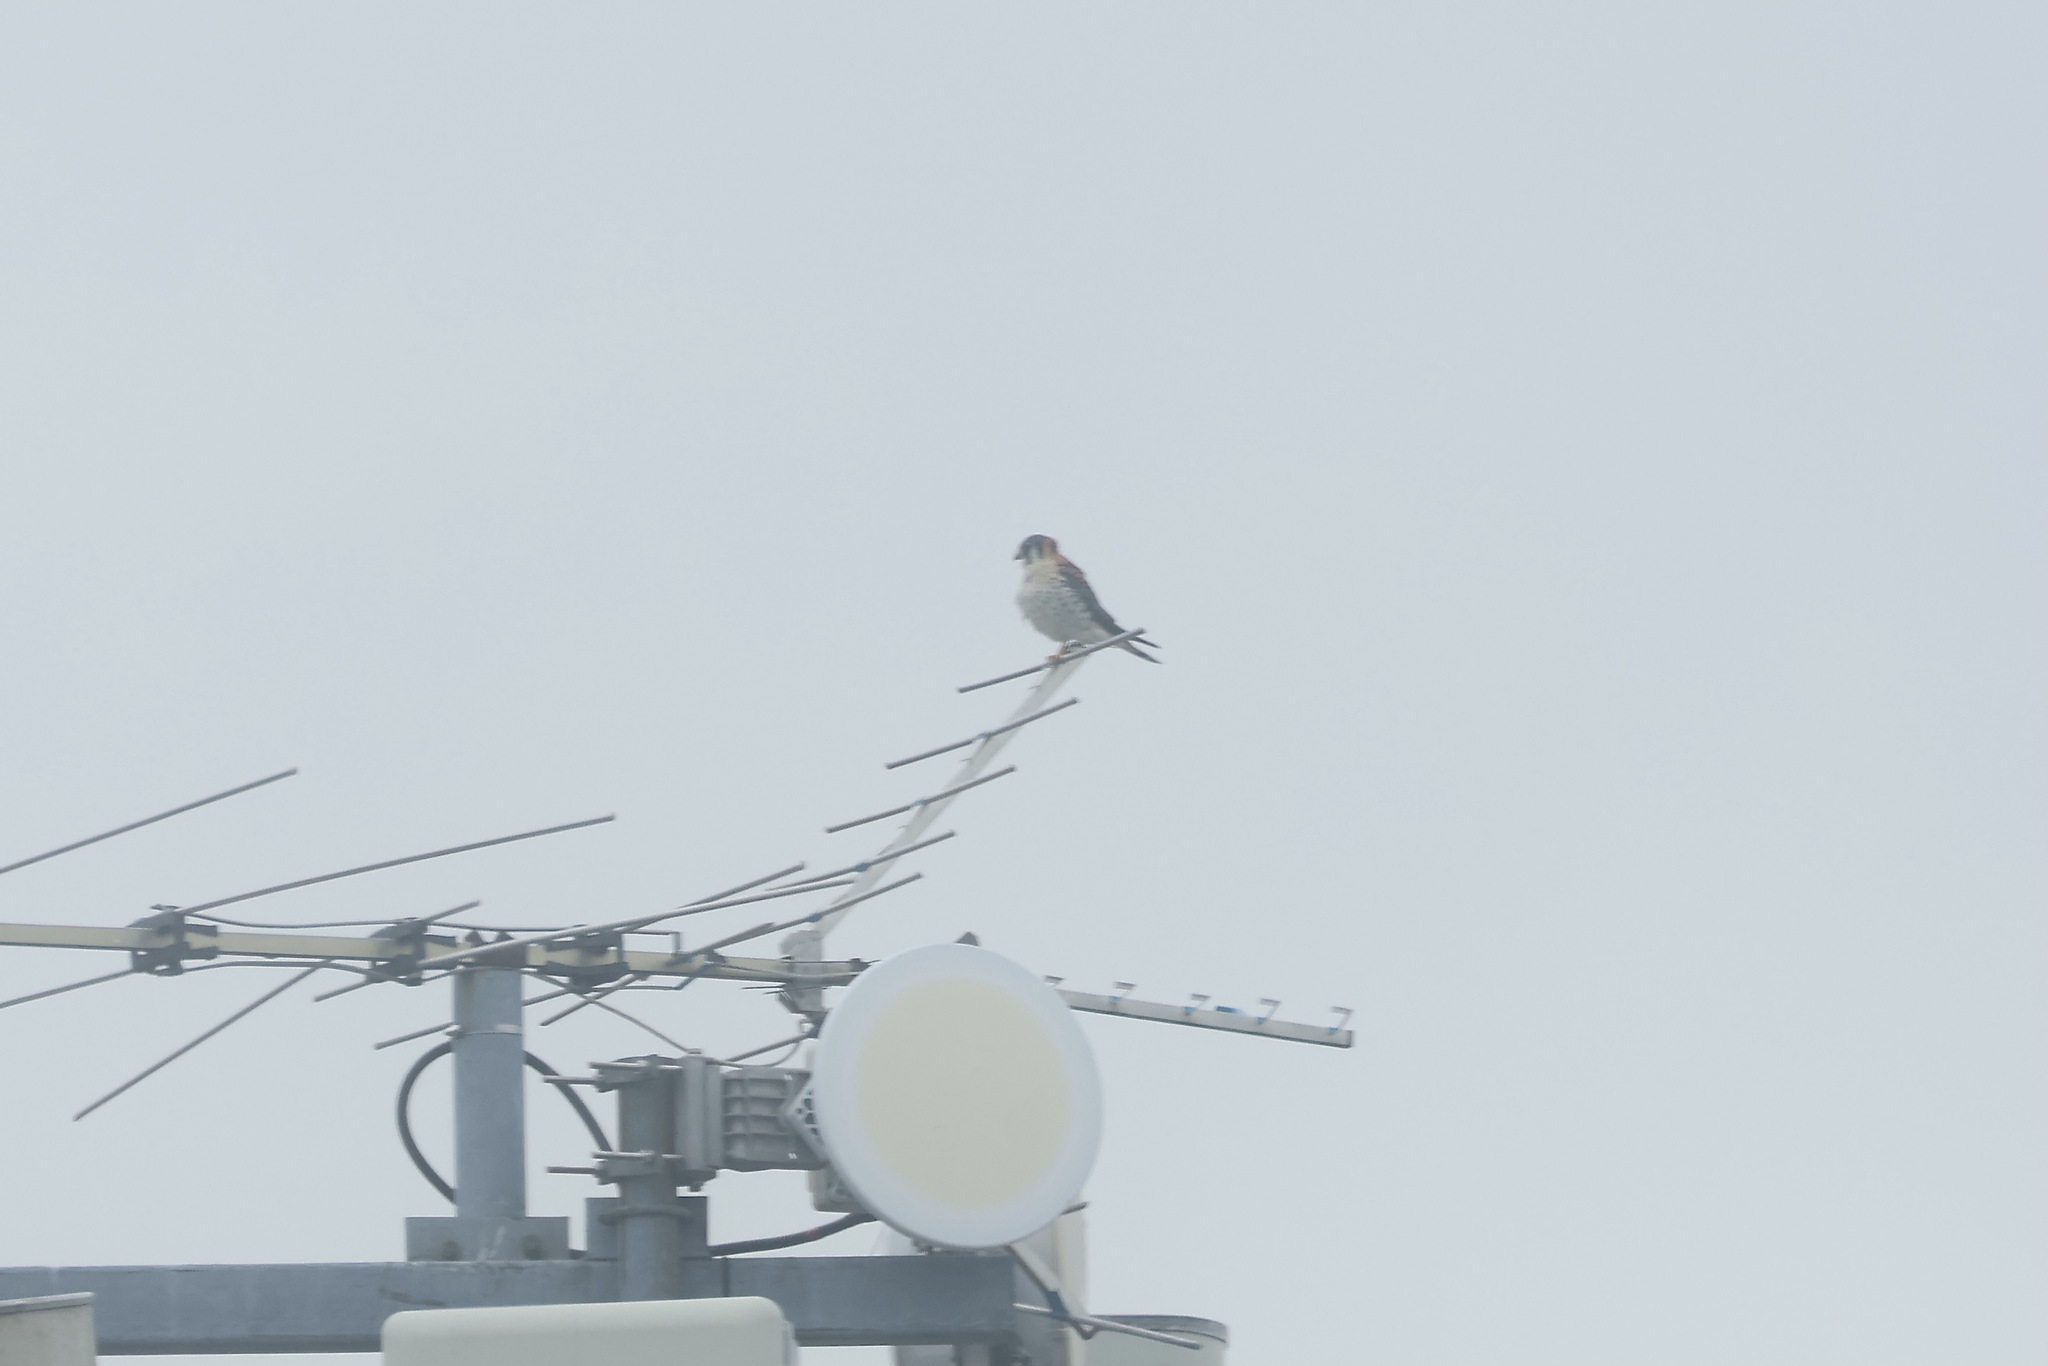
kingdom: Animalia
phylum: Chordata
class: Aves
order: Falconiformes
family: Falconidae
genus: Falco
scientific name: Falco sparverius
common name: American kestrel
